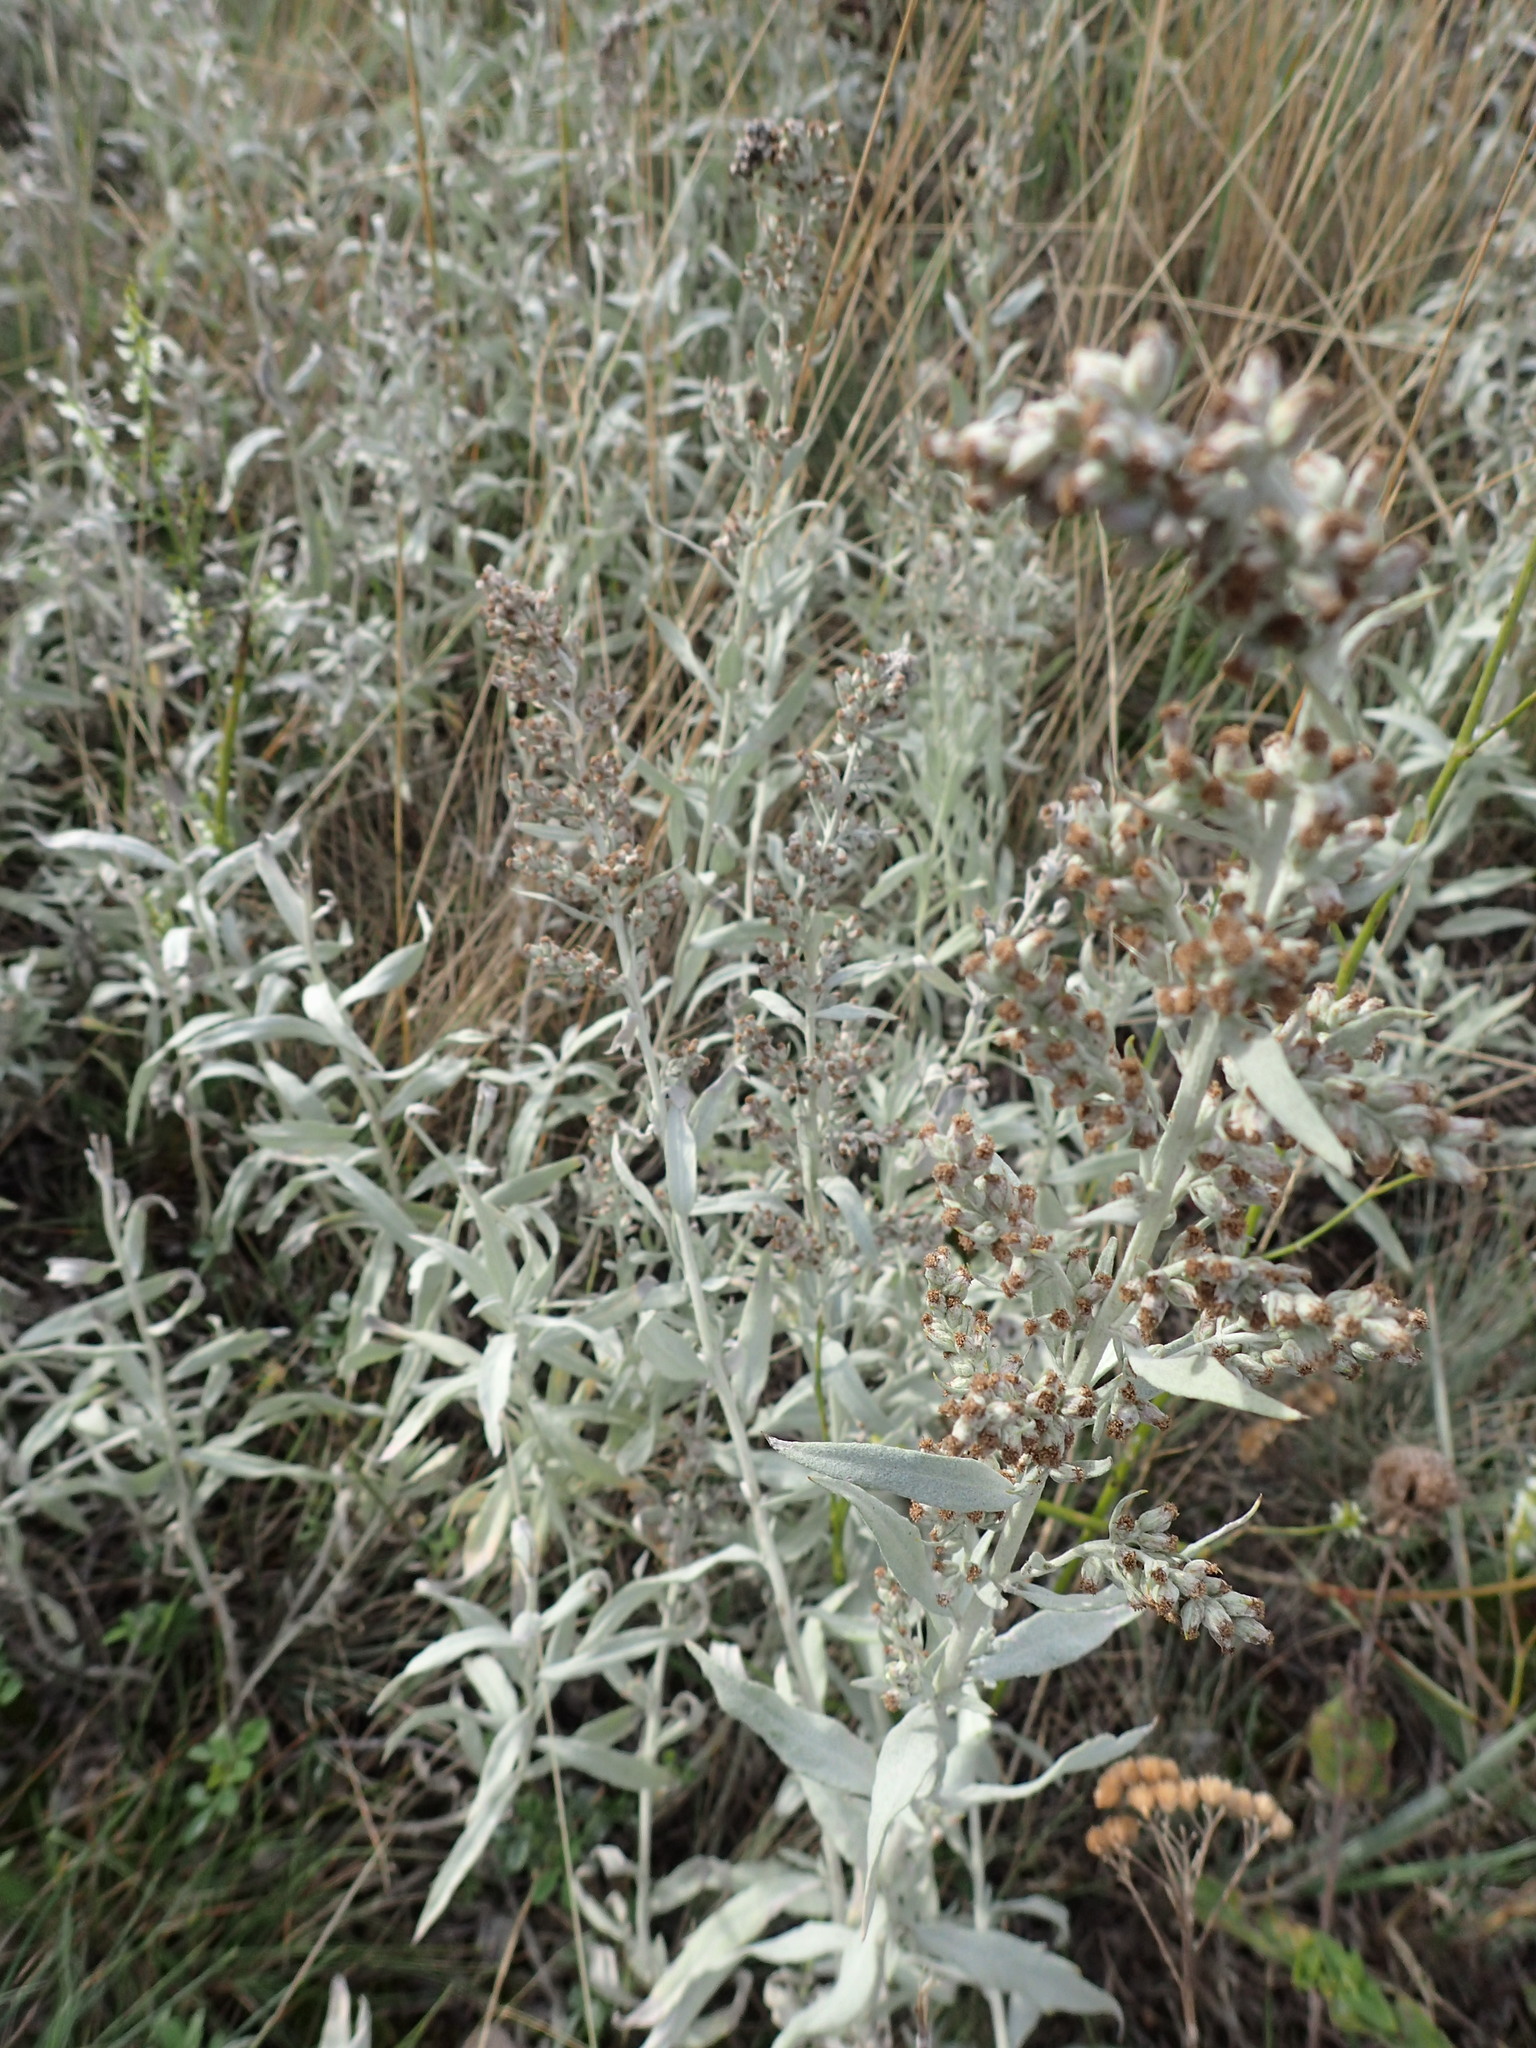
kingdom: Plantae
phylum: Tracheophyta
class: Magnoliopsida
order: Asterales
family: Asteraceae
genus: Artemisia
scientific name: Artemisia ludoviciana
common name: Western mugwort
